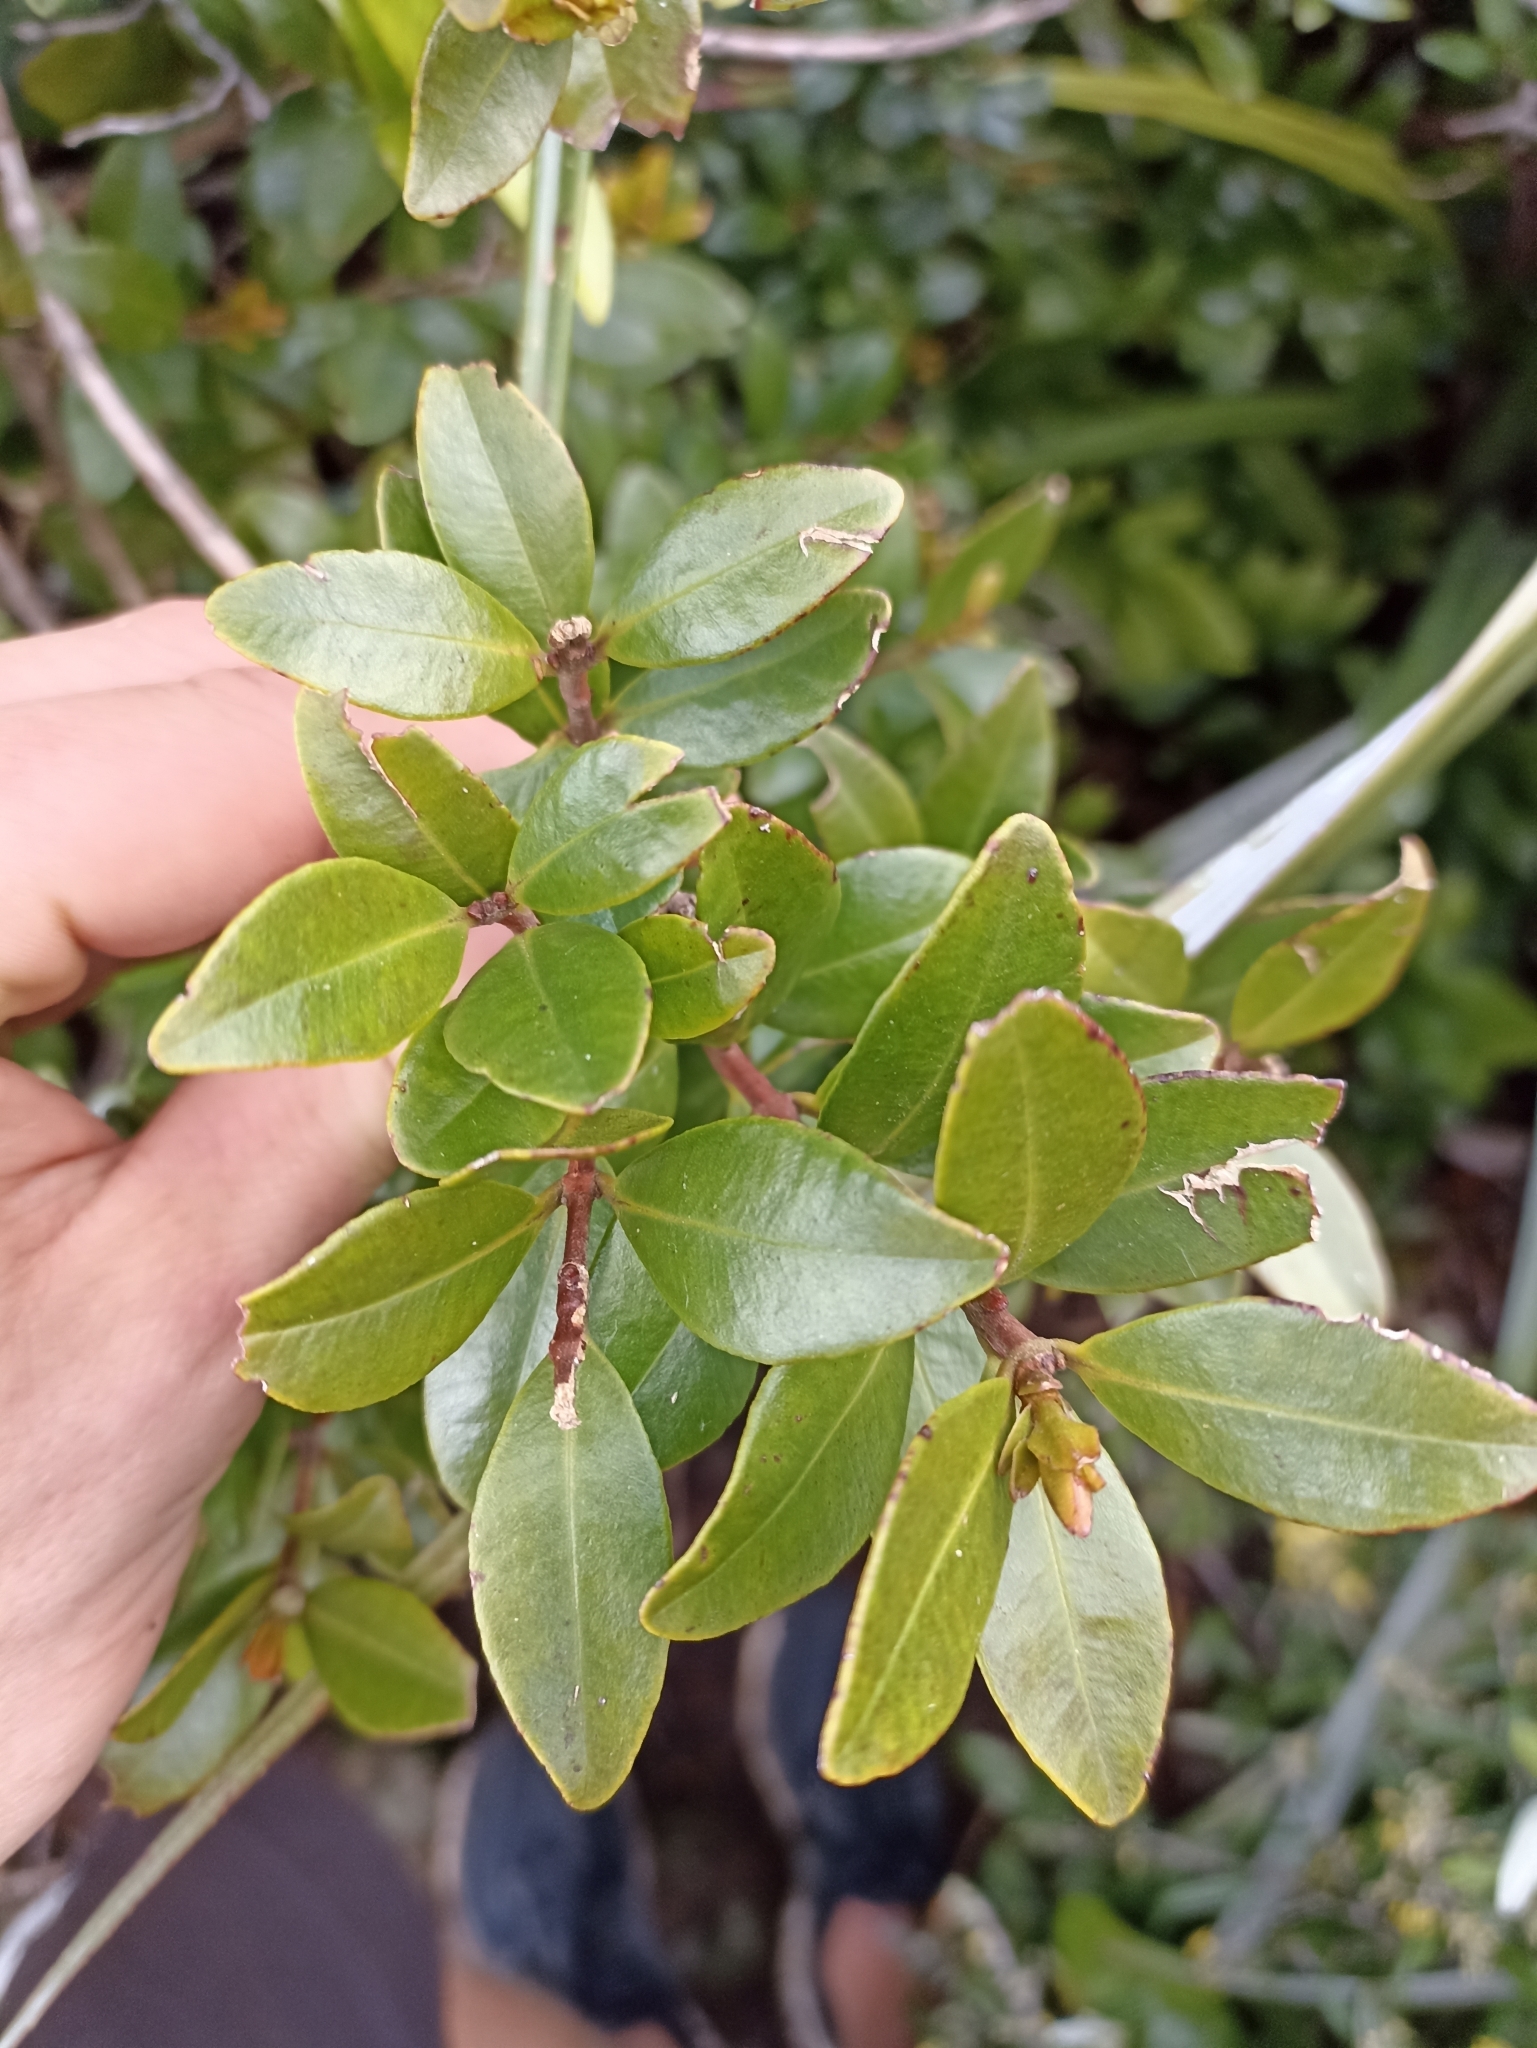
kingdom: Plantae
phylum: Tracheophyta
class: Magnoliopsida
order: Myrtales
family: Myrtaceae
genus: Metrosideros
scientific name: Metrosideros fulgens
